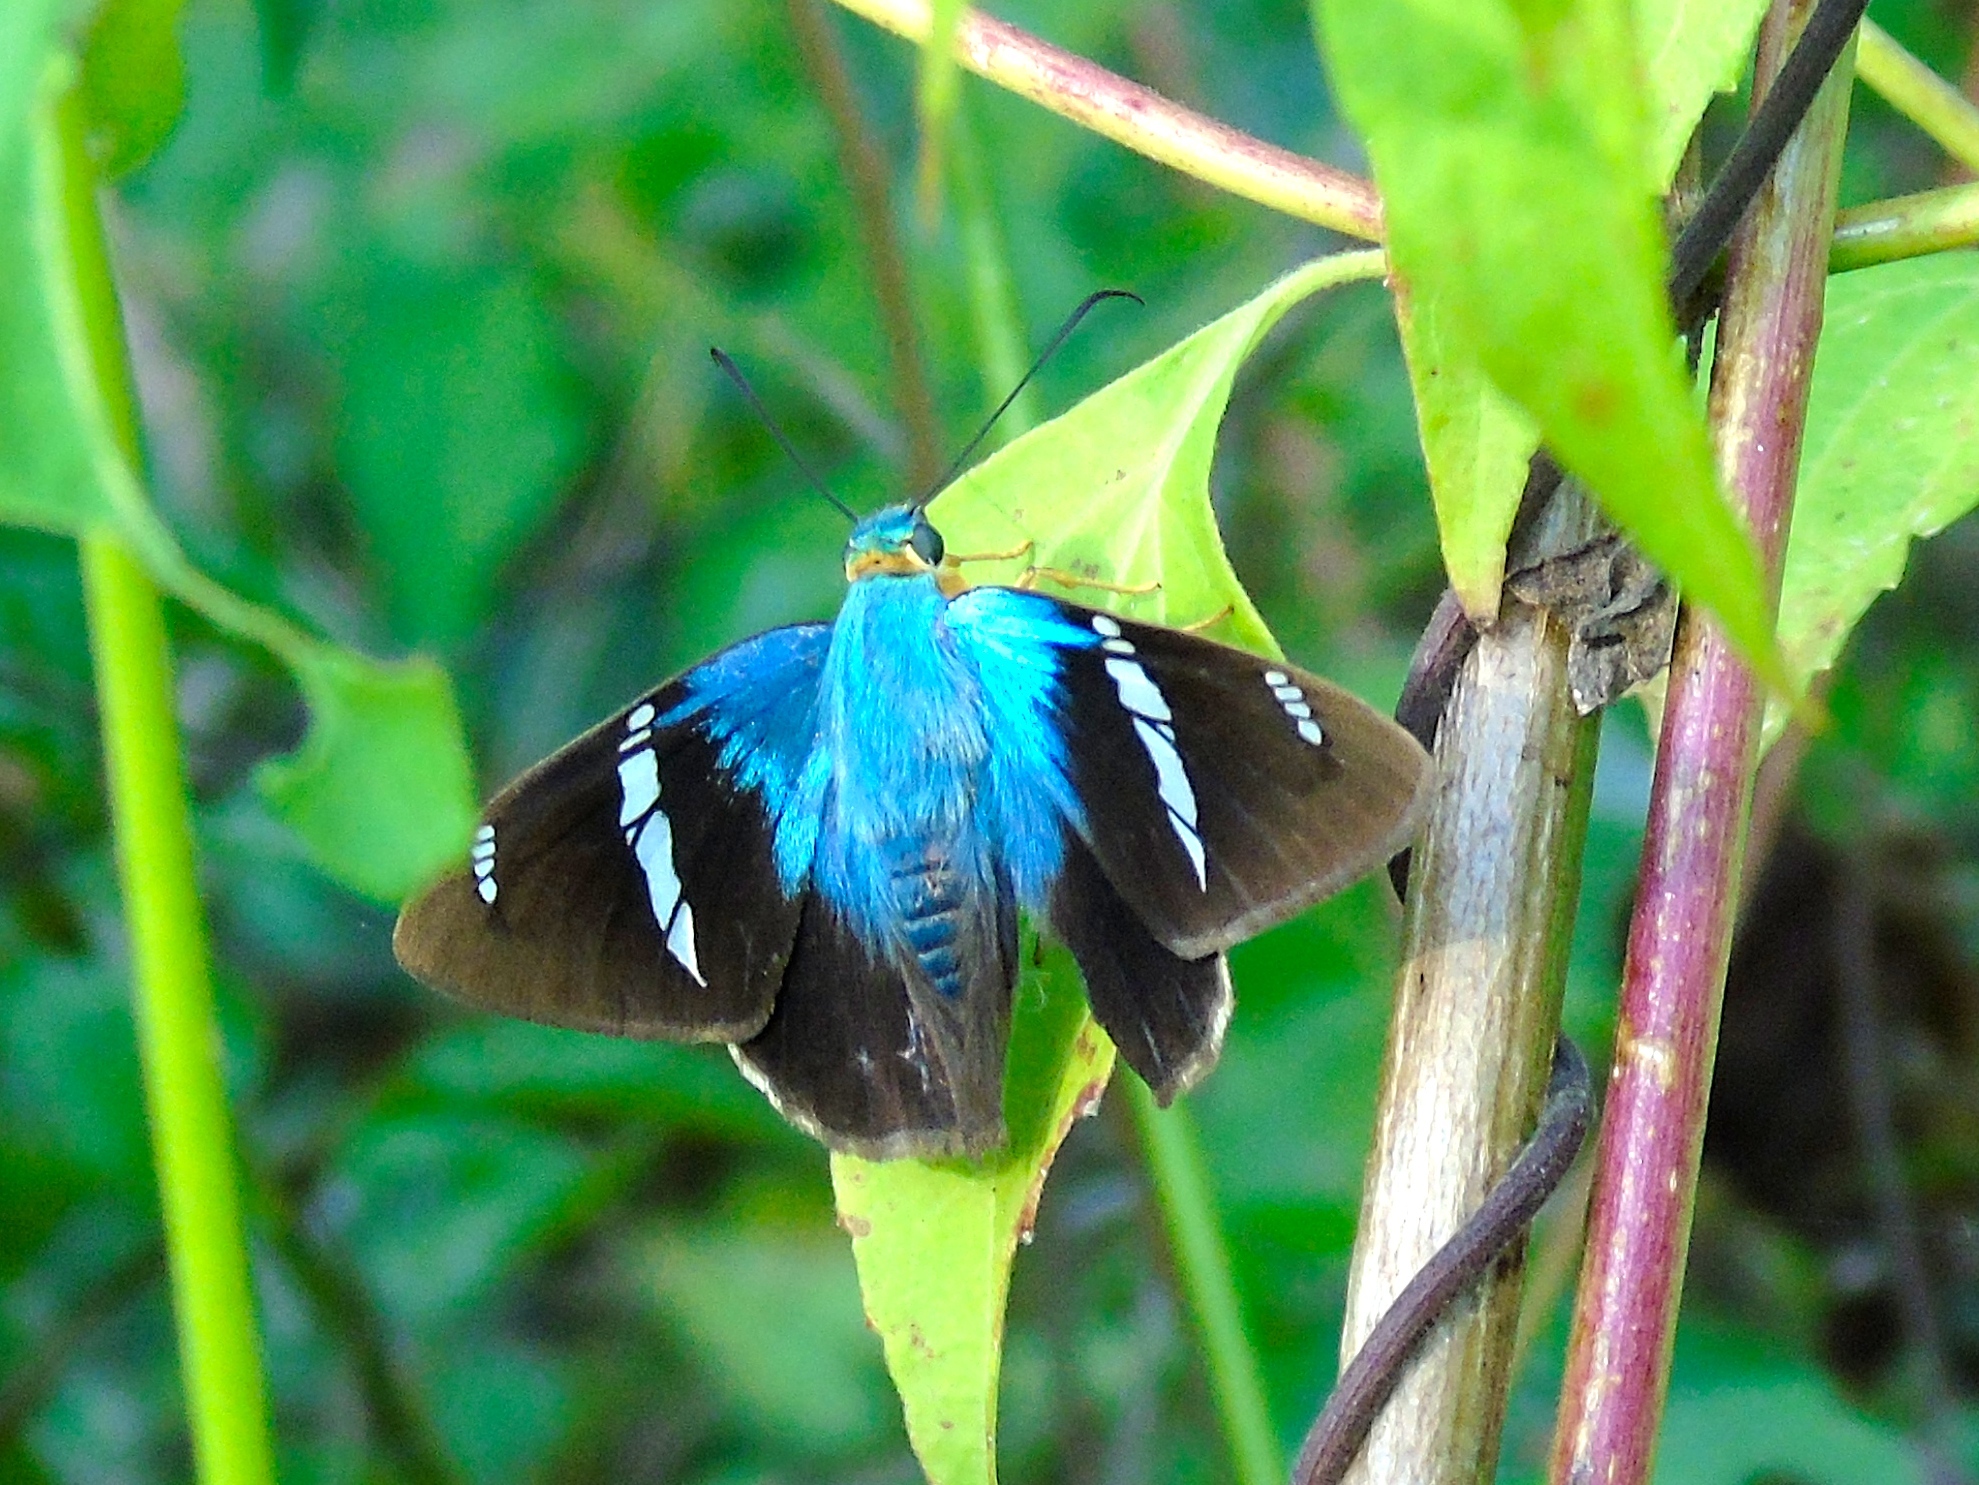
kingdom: Animalia
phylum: Arthropoda
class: Insecta
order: Lepidoptera
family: Hesperiidae
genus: Astraptes
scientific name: Astraptes fulgerator
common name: Two-barred flasher
